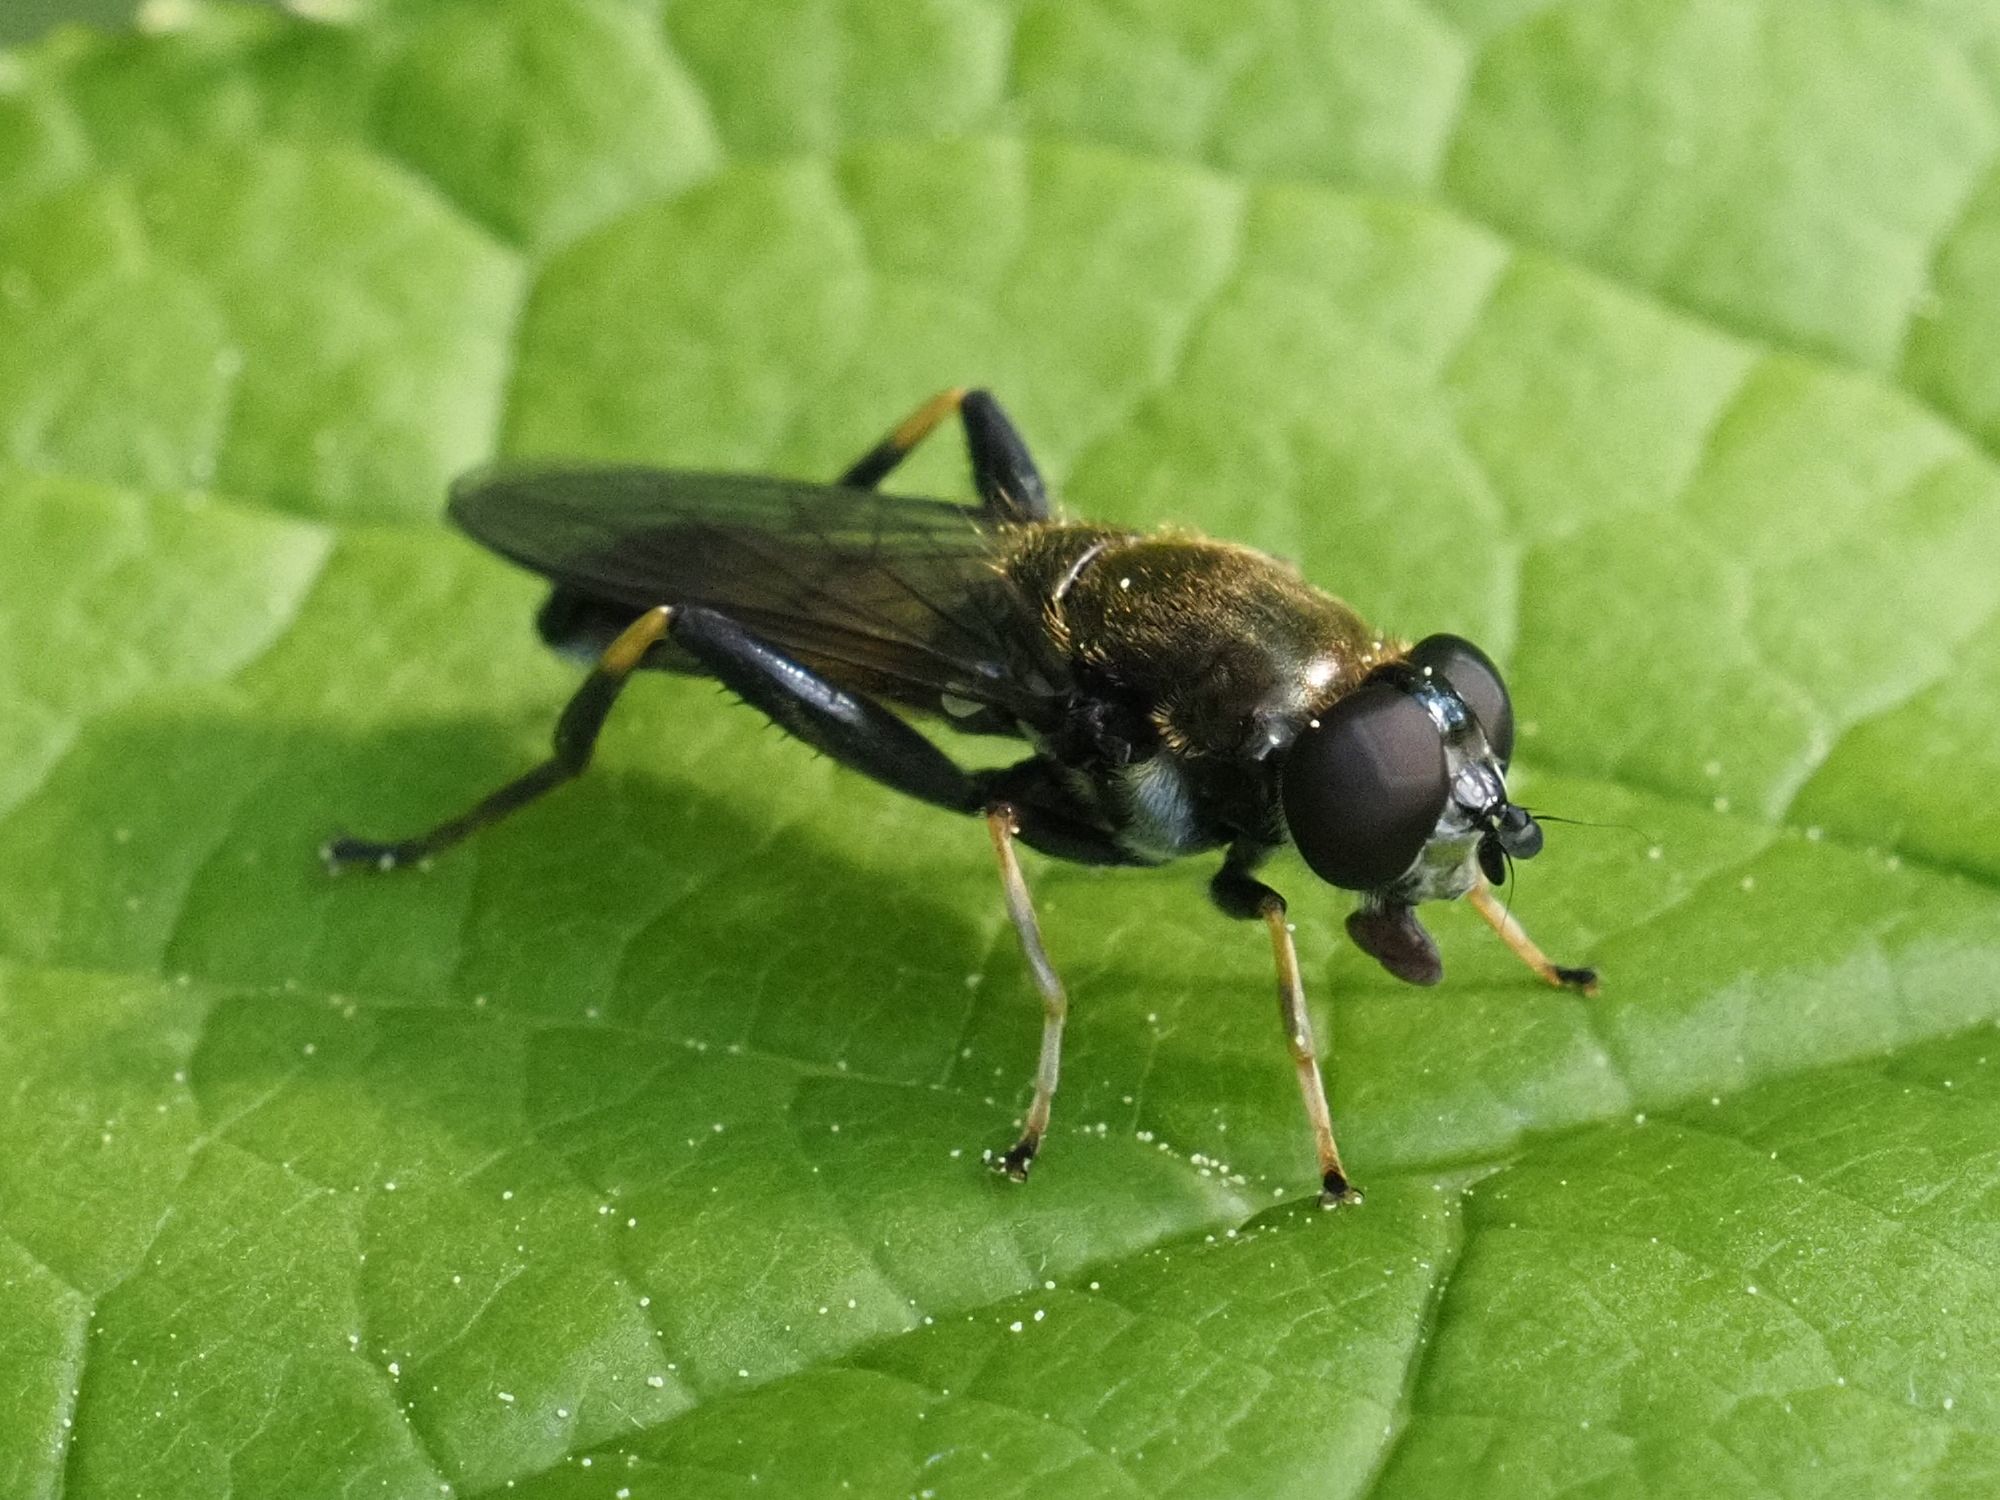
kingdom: Animalia
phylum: Arthropoda
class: Insecta
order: Diptera
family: Syrphidae
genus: Xylota
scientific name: Xylota segnis
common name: Brown-toed forest fly
